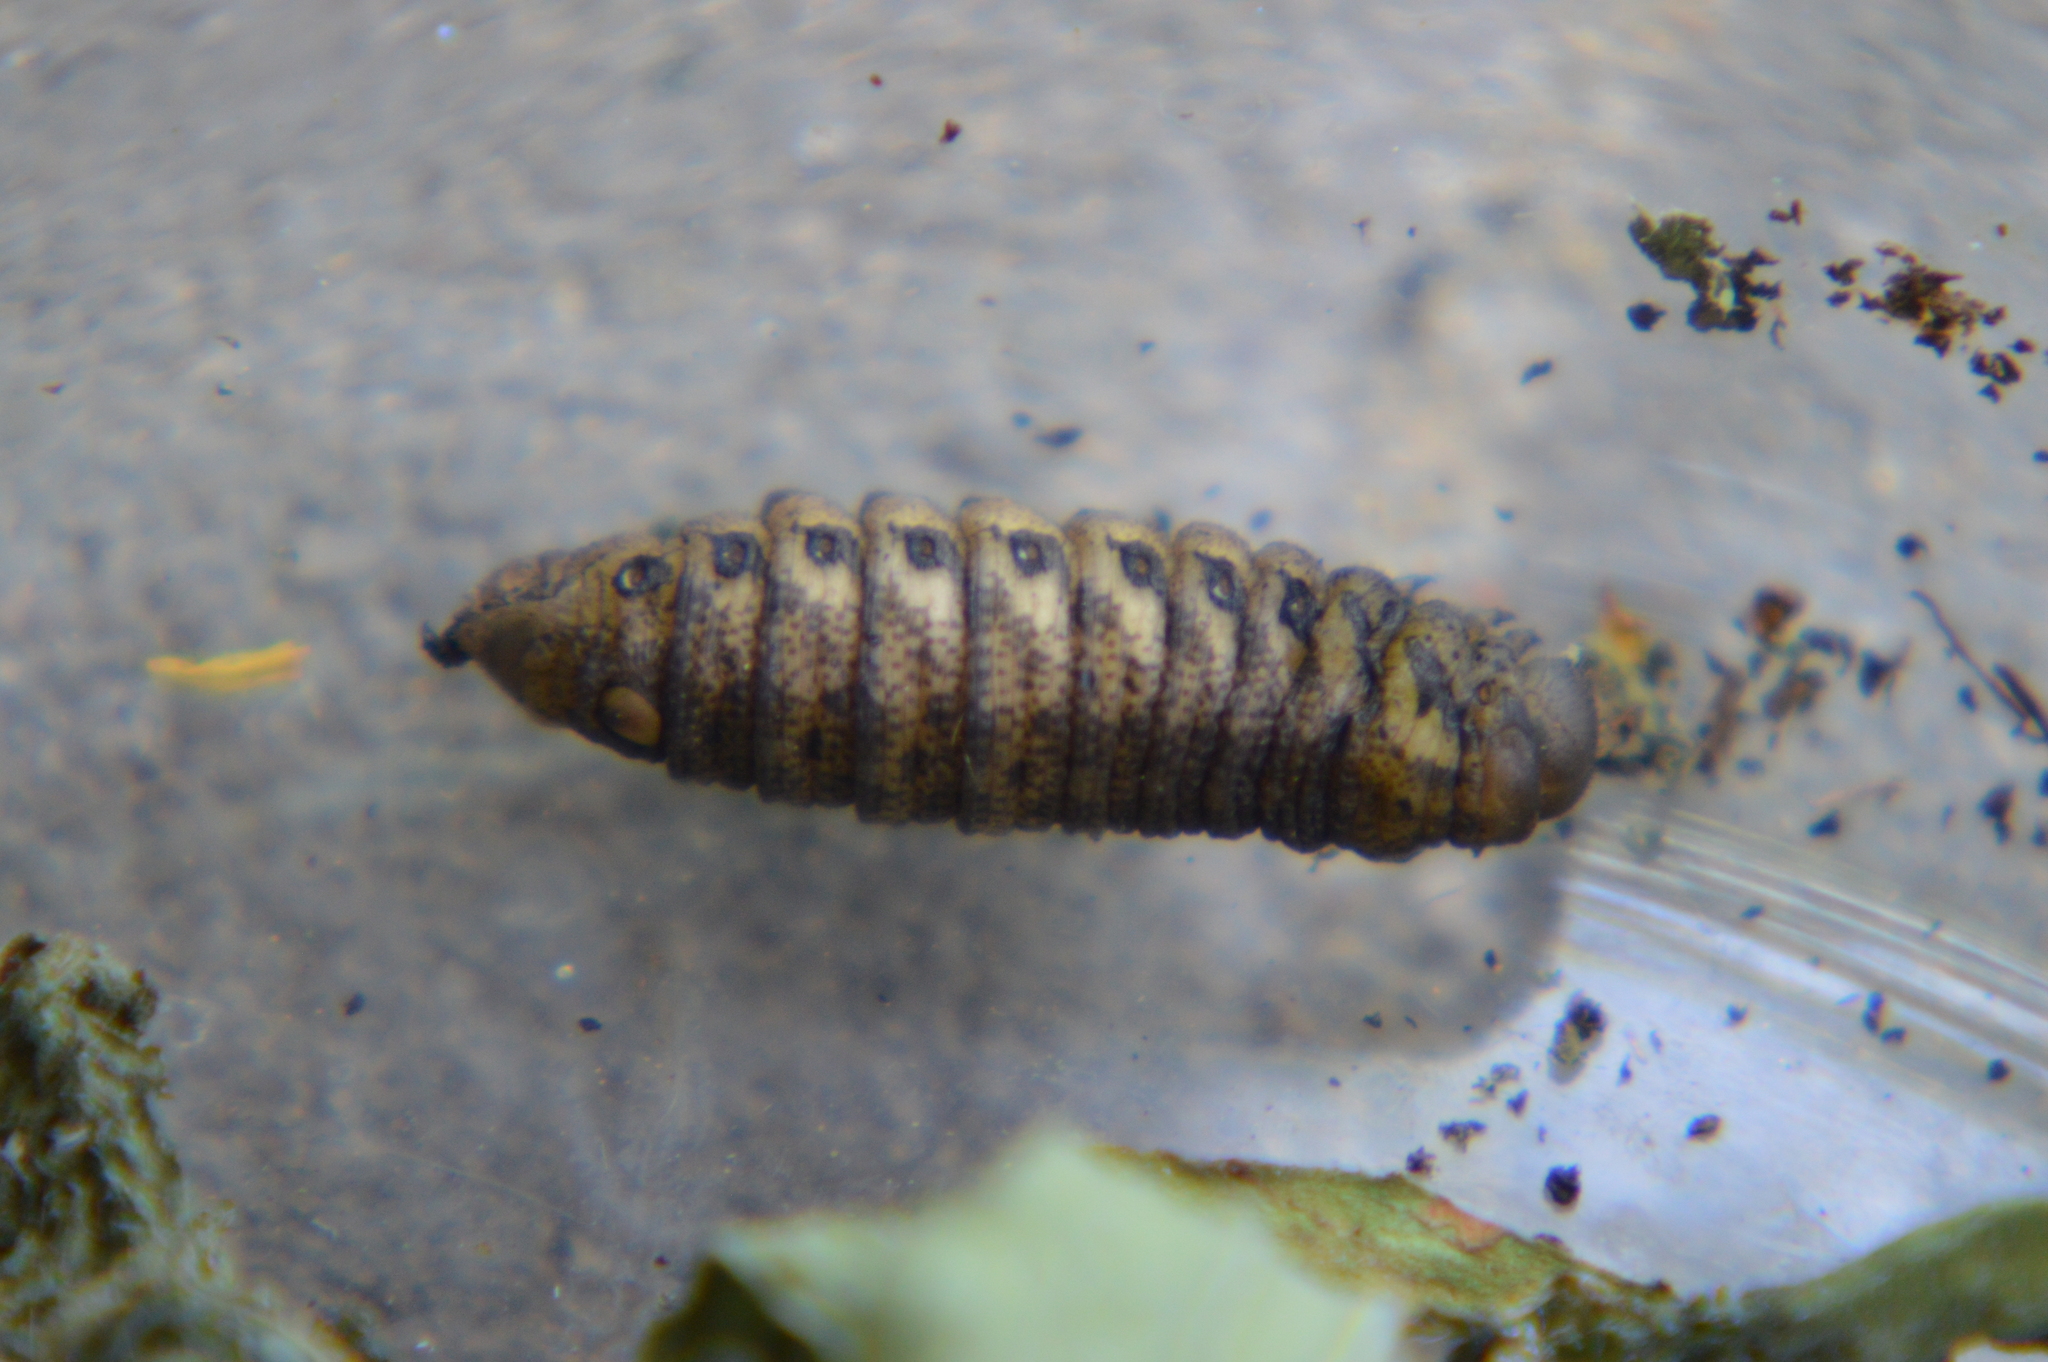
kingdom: Animalia
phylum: Arthropoda
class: Insecta
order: Lepidoptera
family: Sphingidae
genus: Proserpinus
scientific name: Proserpinus proserpina
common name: Willowherb hawkmoth
